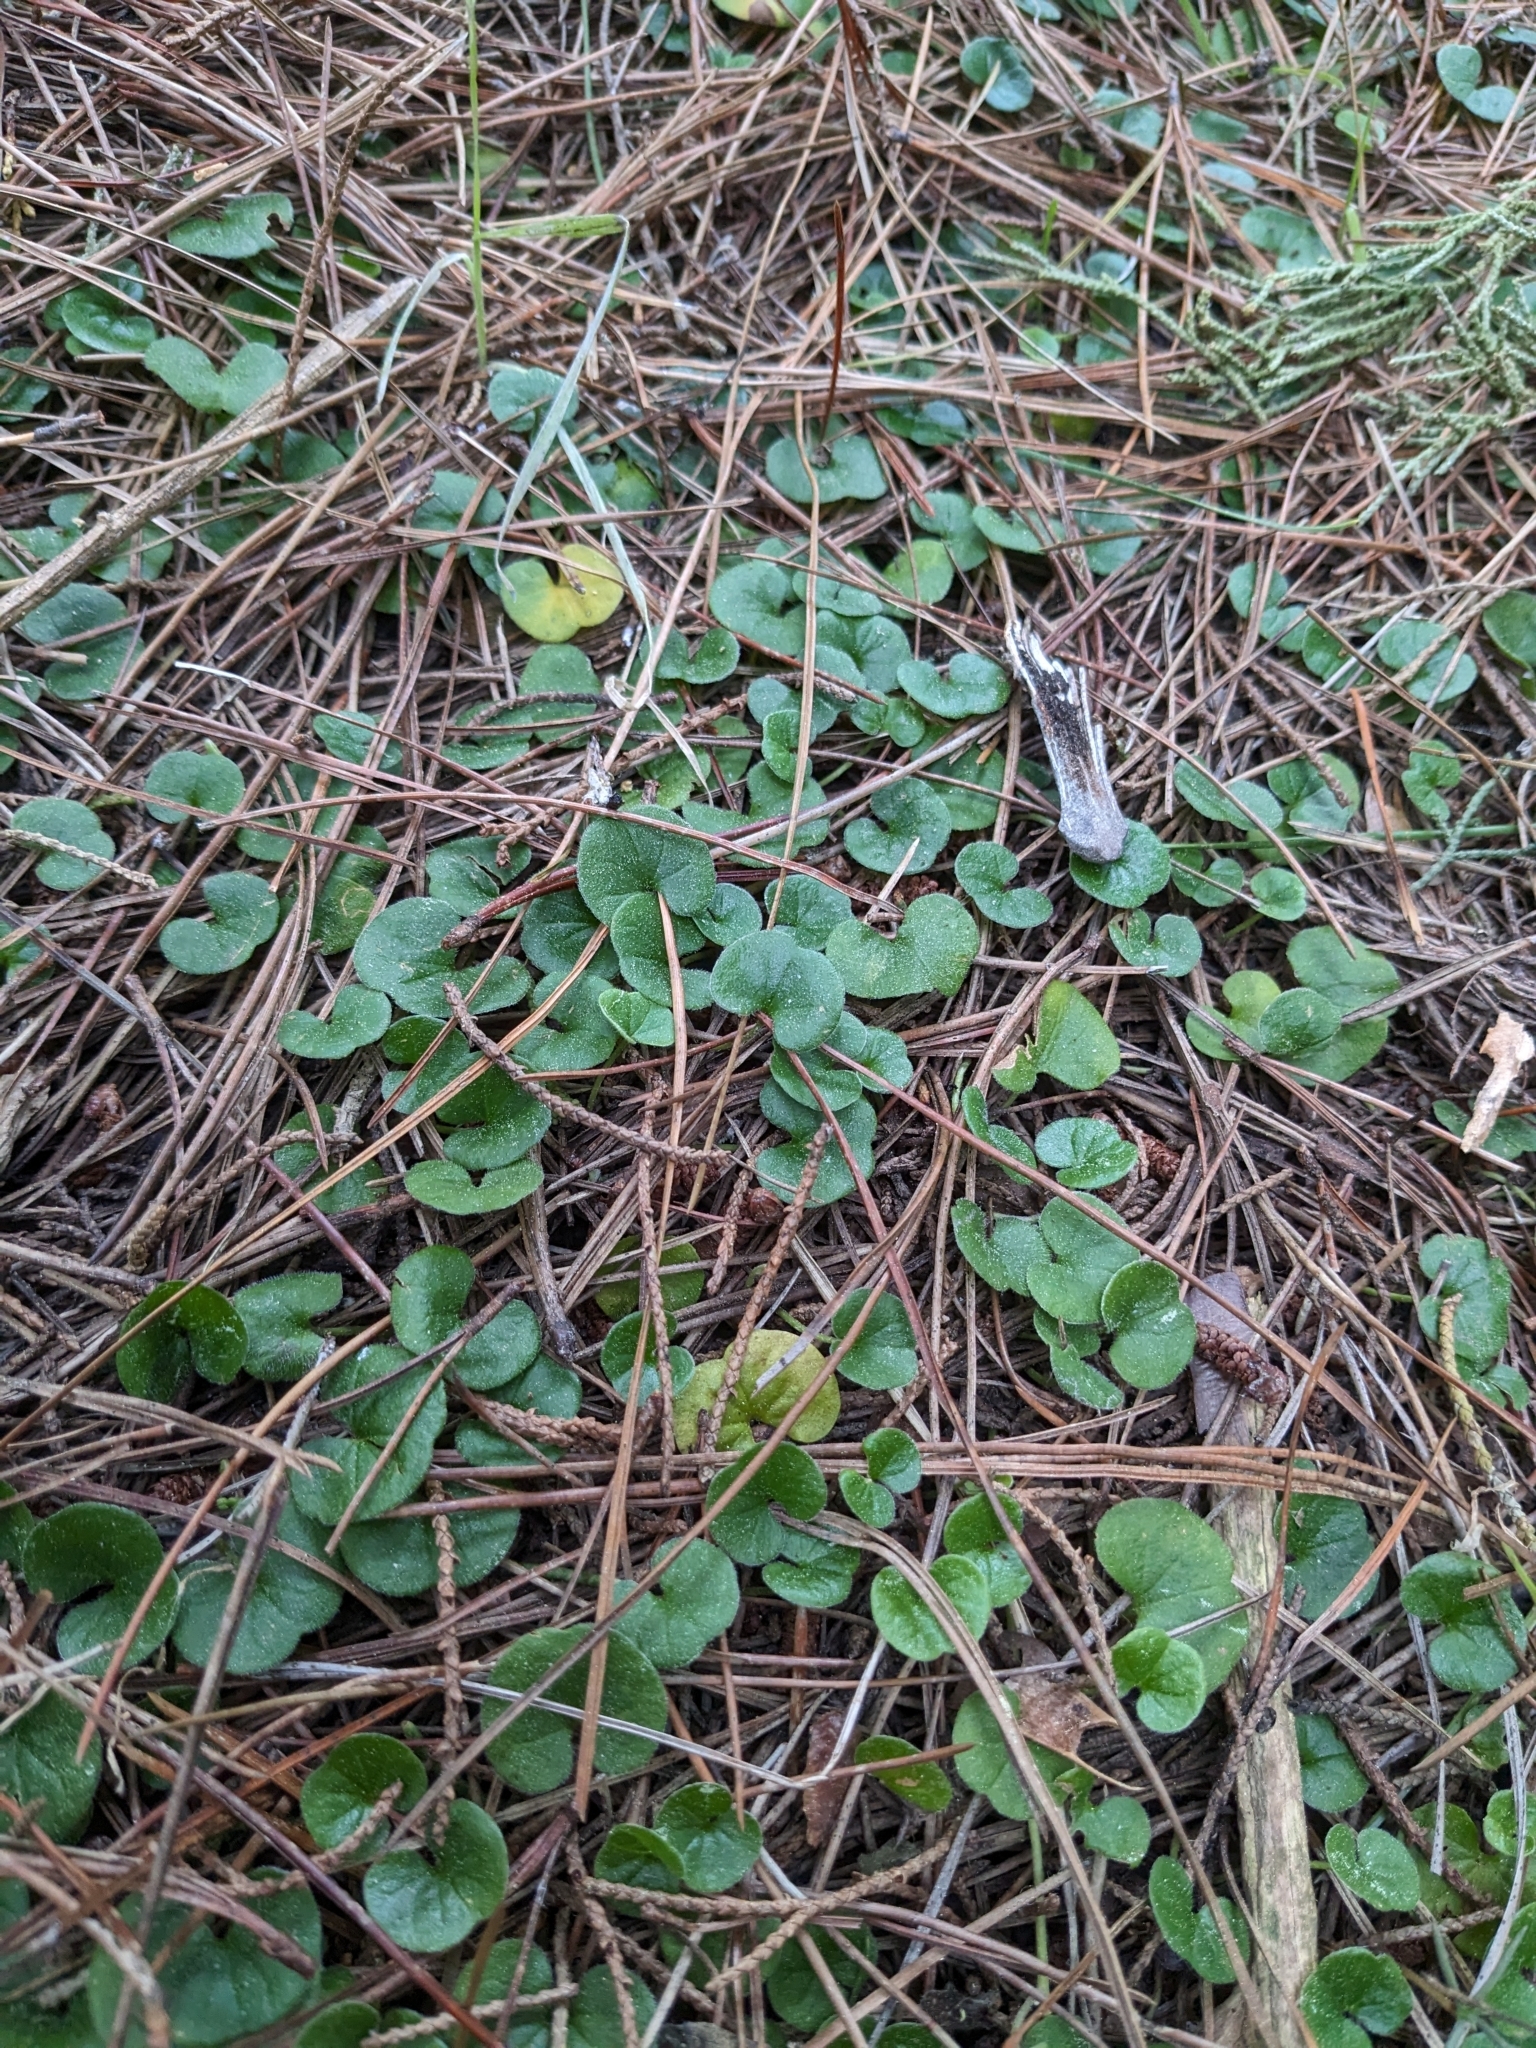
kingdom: Plantae
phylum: Tracheophyta
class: Magnoliopsida
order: Solanales
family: Convolvulaceae
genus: Dichondra
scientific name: Dichondra repens
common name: Kidneyweed
